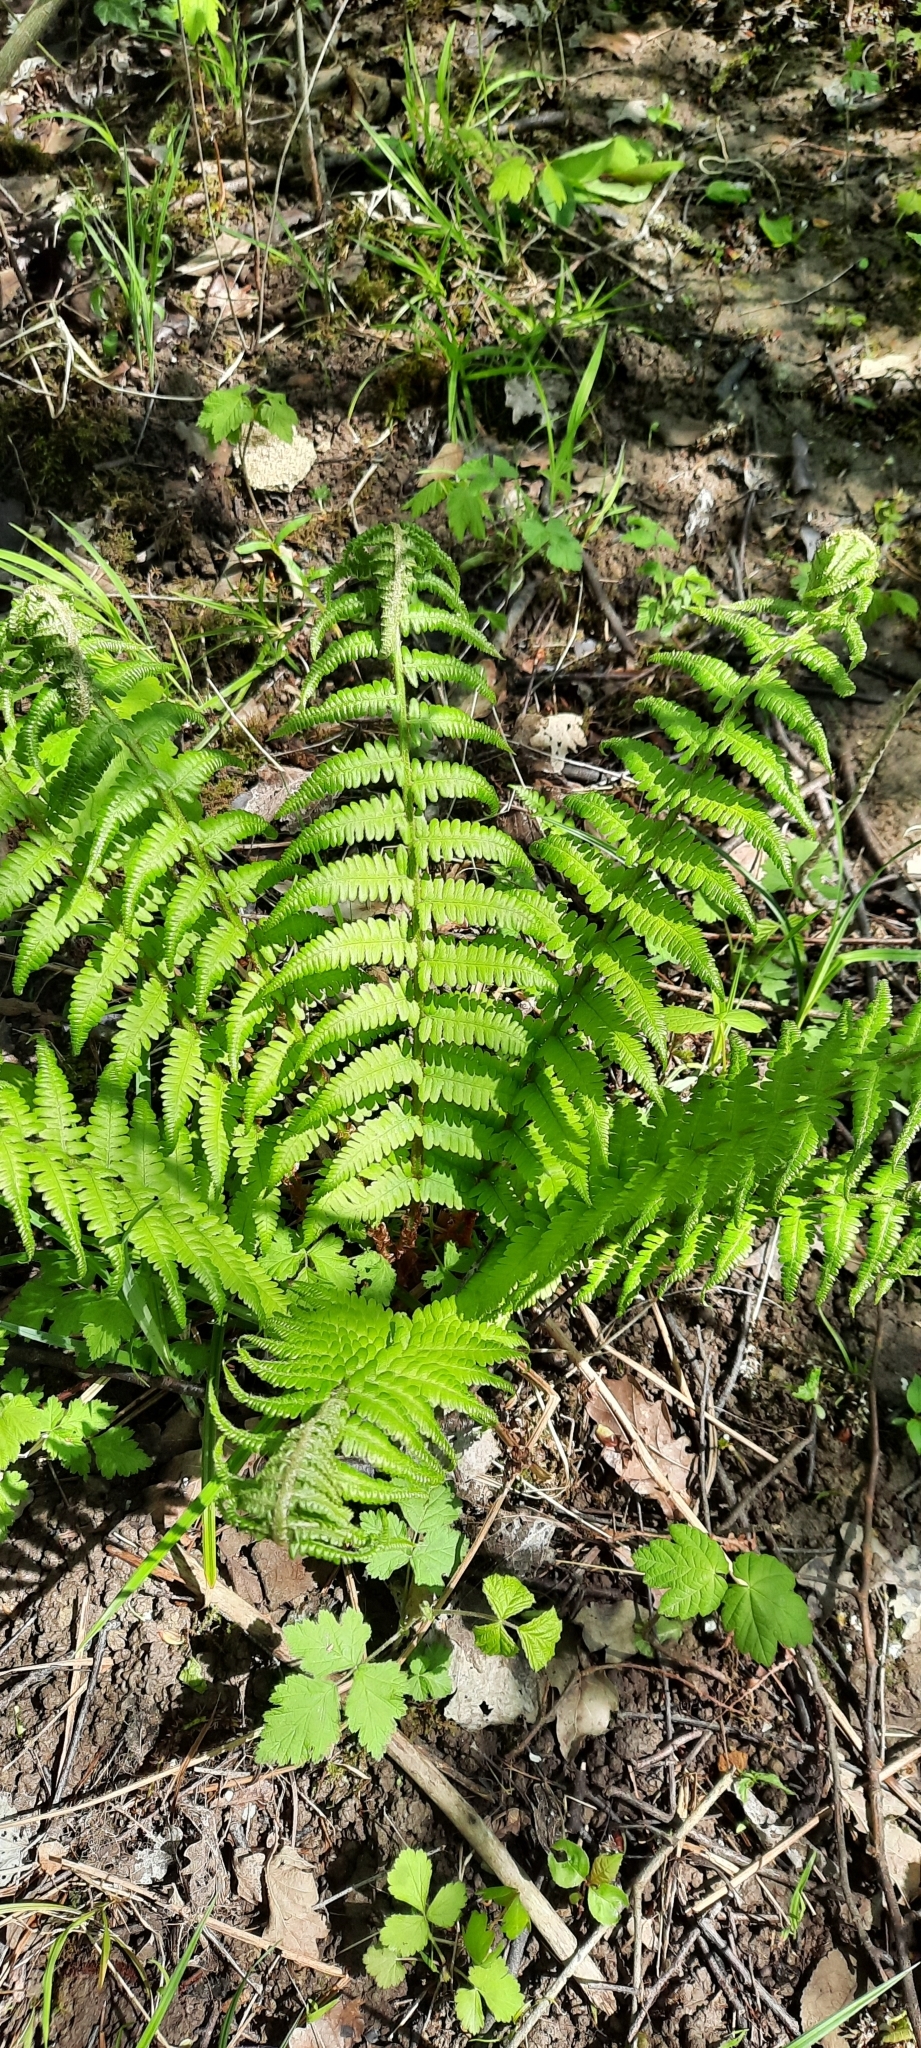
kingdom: Plantae
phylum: Tracheophyta
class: Polypodiopsida
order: Polypodiales
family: Dryopteridaceae
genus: Dryopteris
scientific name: Dryopteris filix-mas
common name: Male fern
